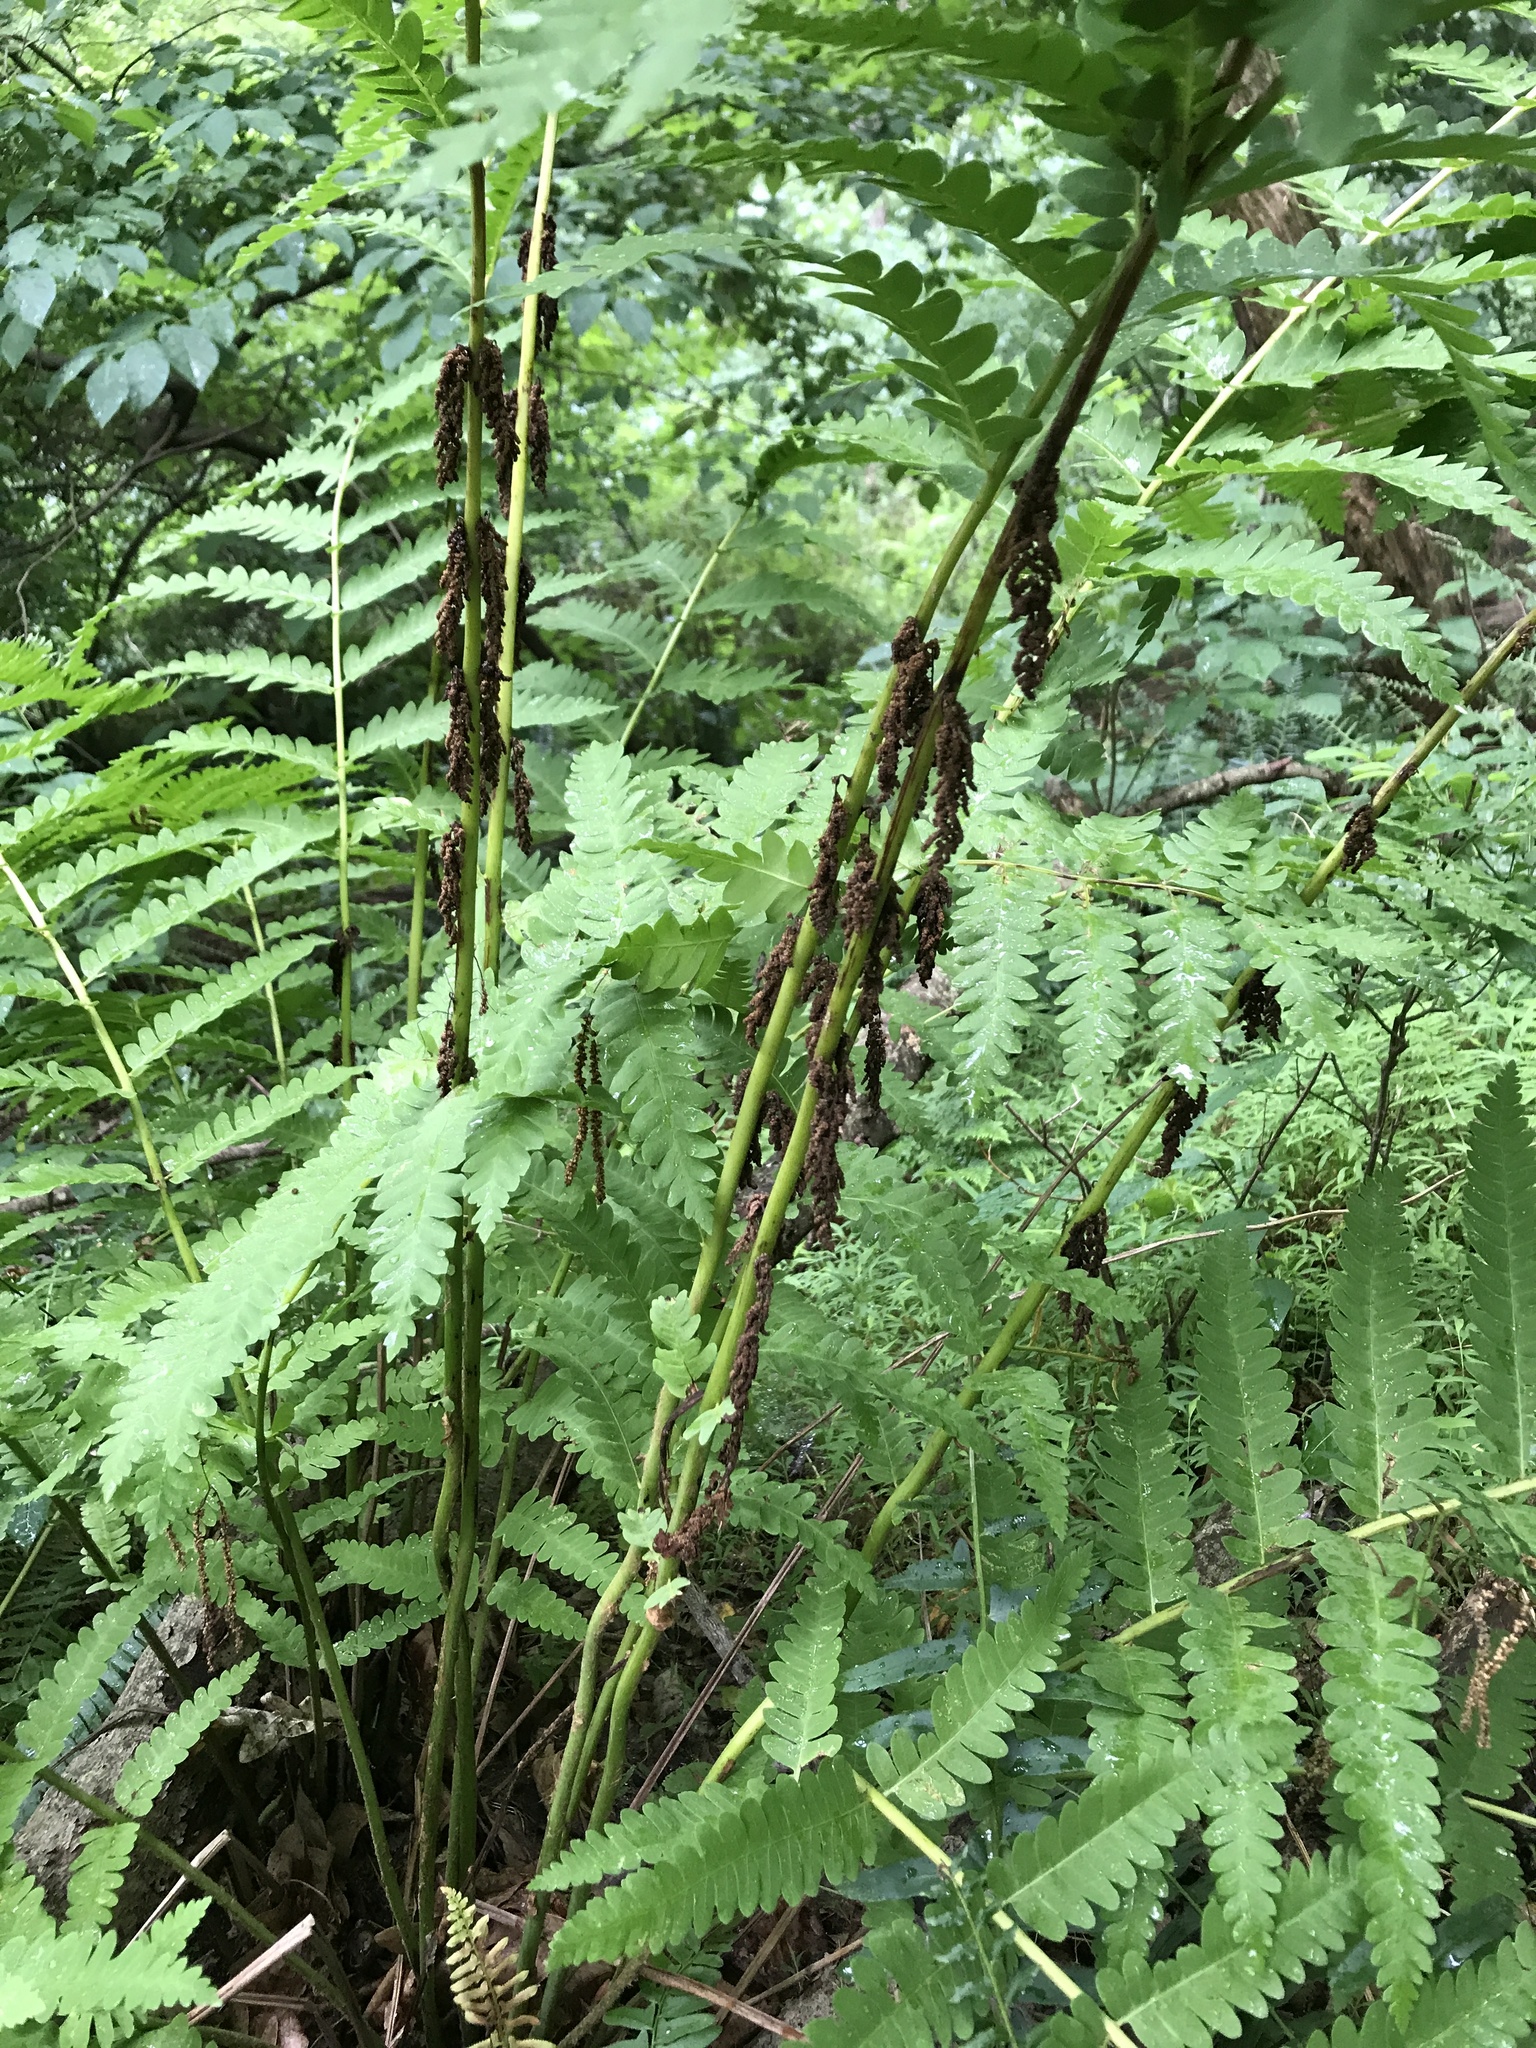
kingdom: Plantae
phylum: Tracheophyta
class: Polypodiopsida
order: Osmundales
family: Osmundaceae
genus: Claytosmunda
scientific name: Claytosmunda claytoniana
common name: Clayton's fern
